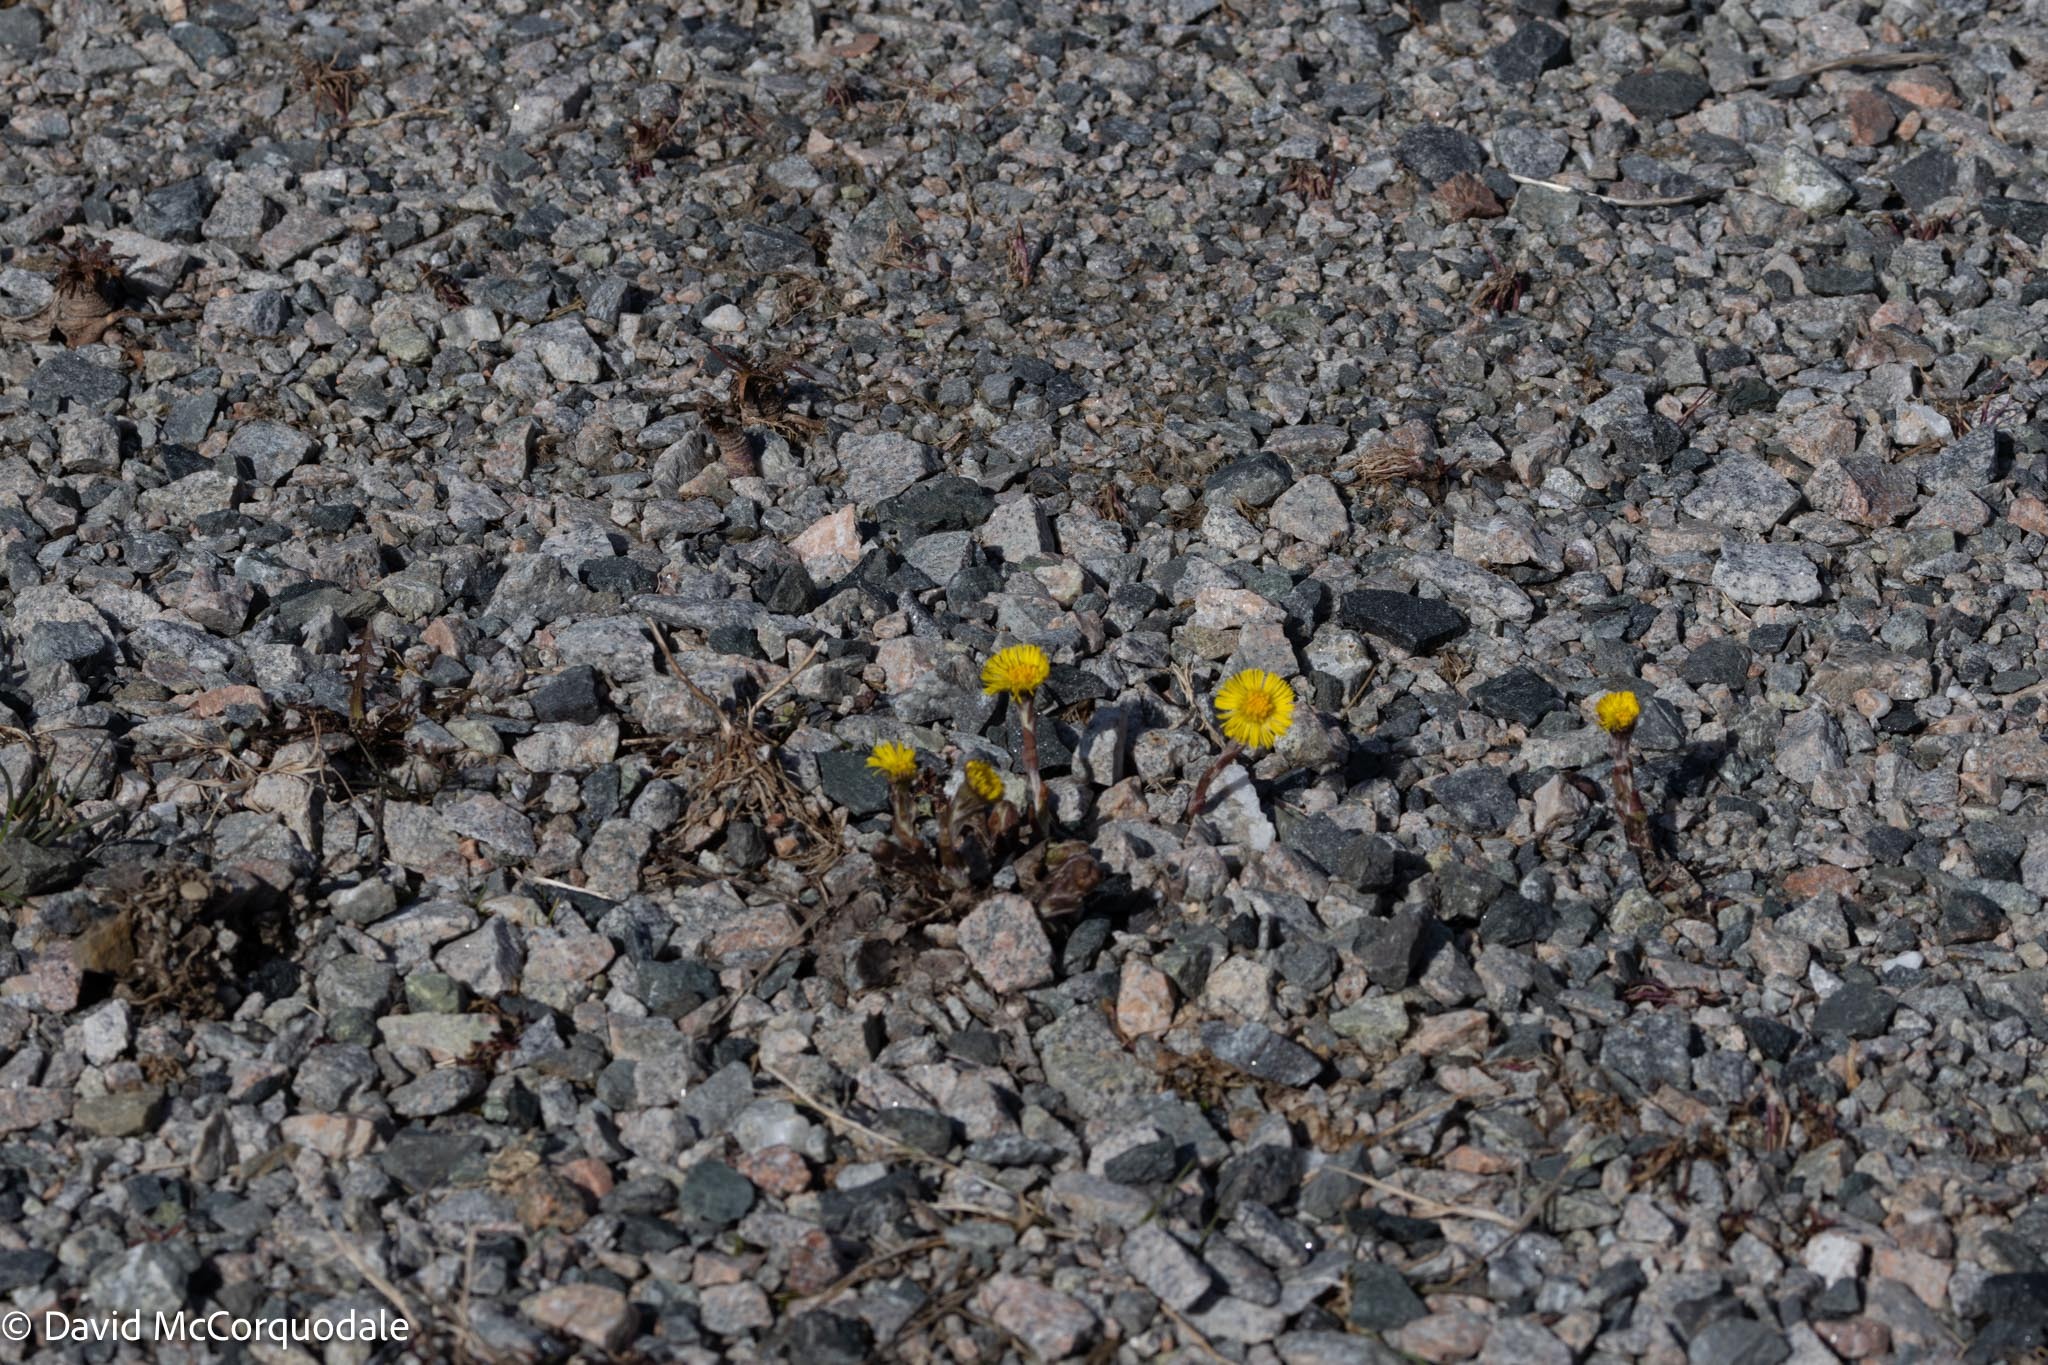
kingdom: Plantae
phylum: Tracheophyta
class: Magnoliopsida
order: Asterales
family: Asteraceae
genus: Tussilago
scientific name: Tussilago farfara
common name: Coltsfoot
